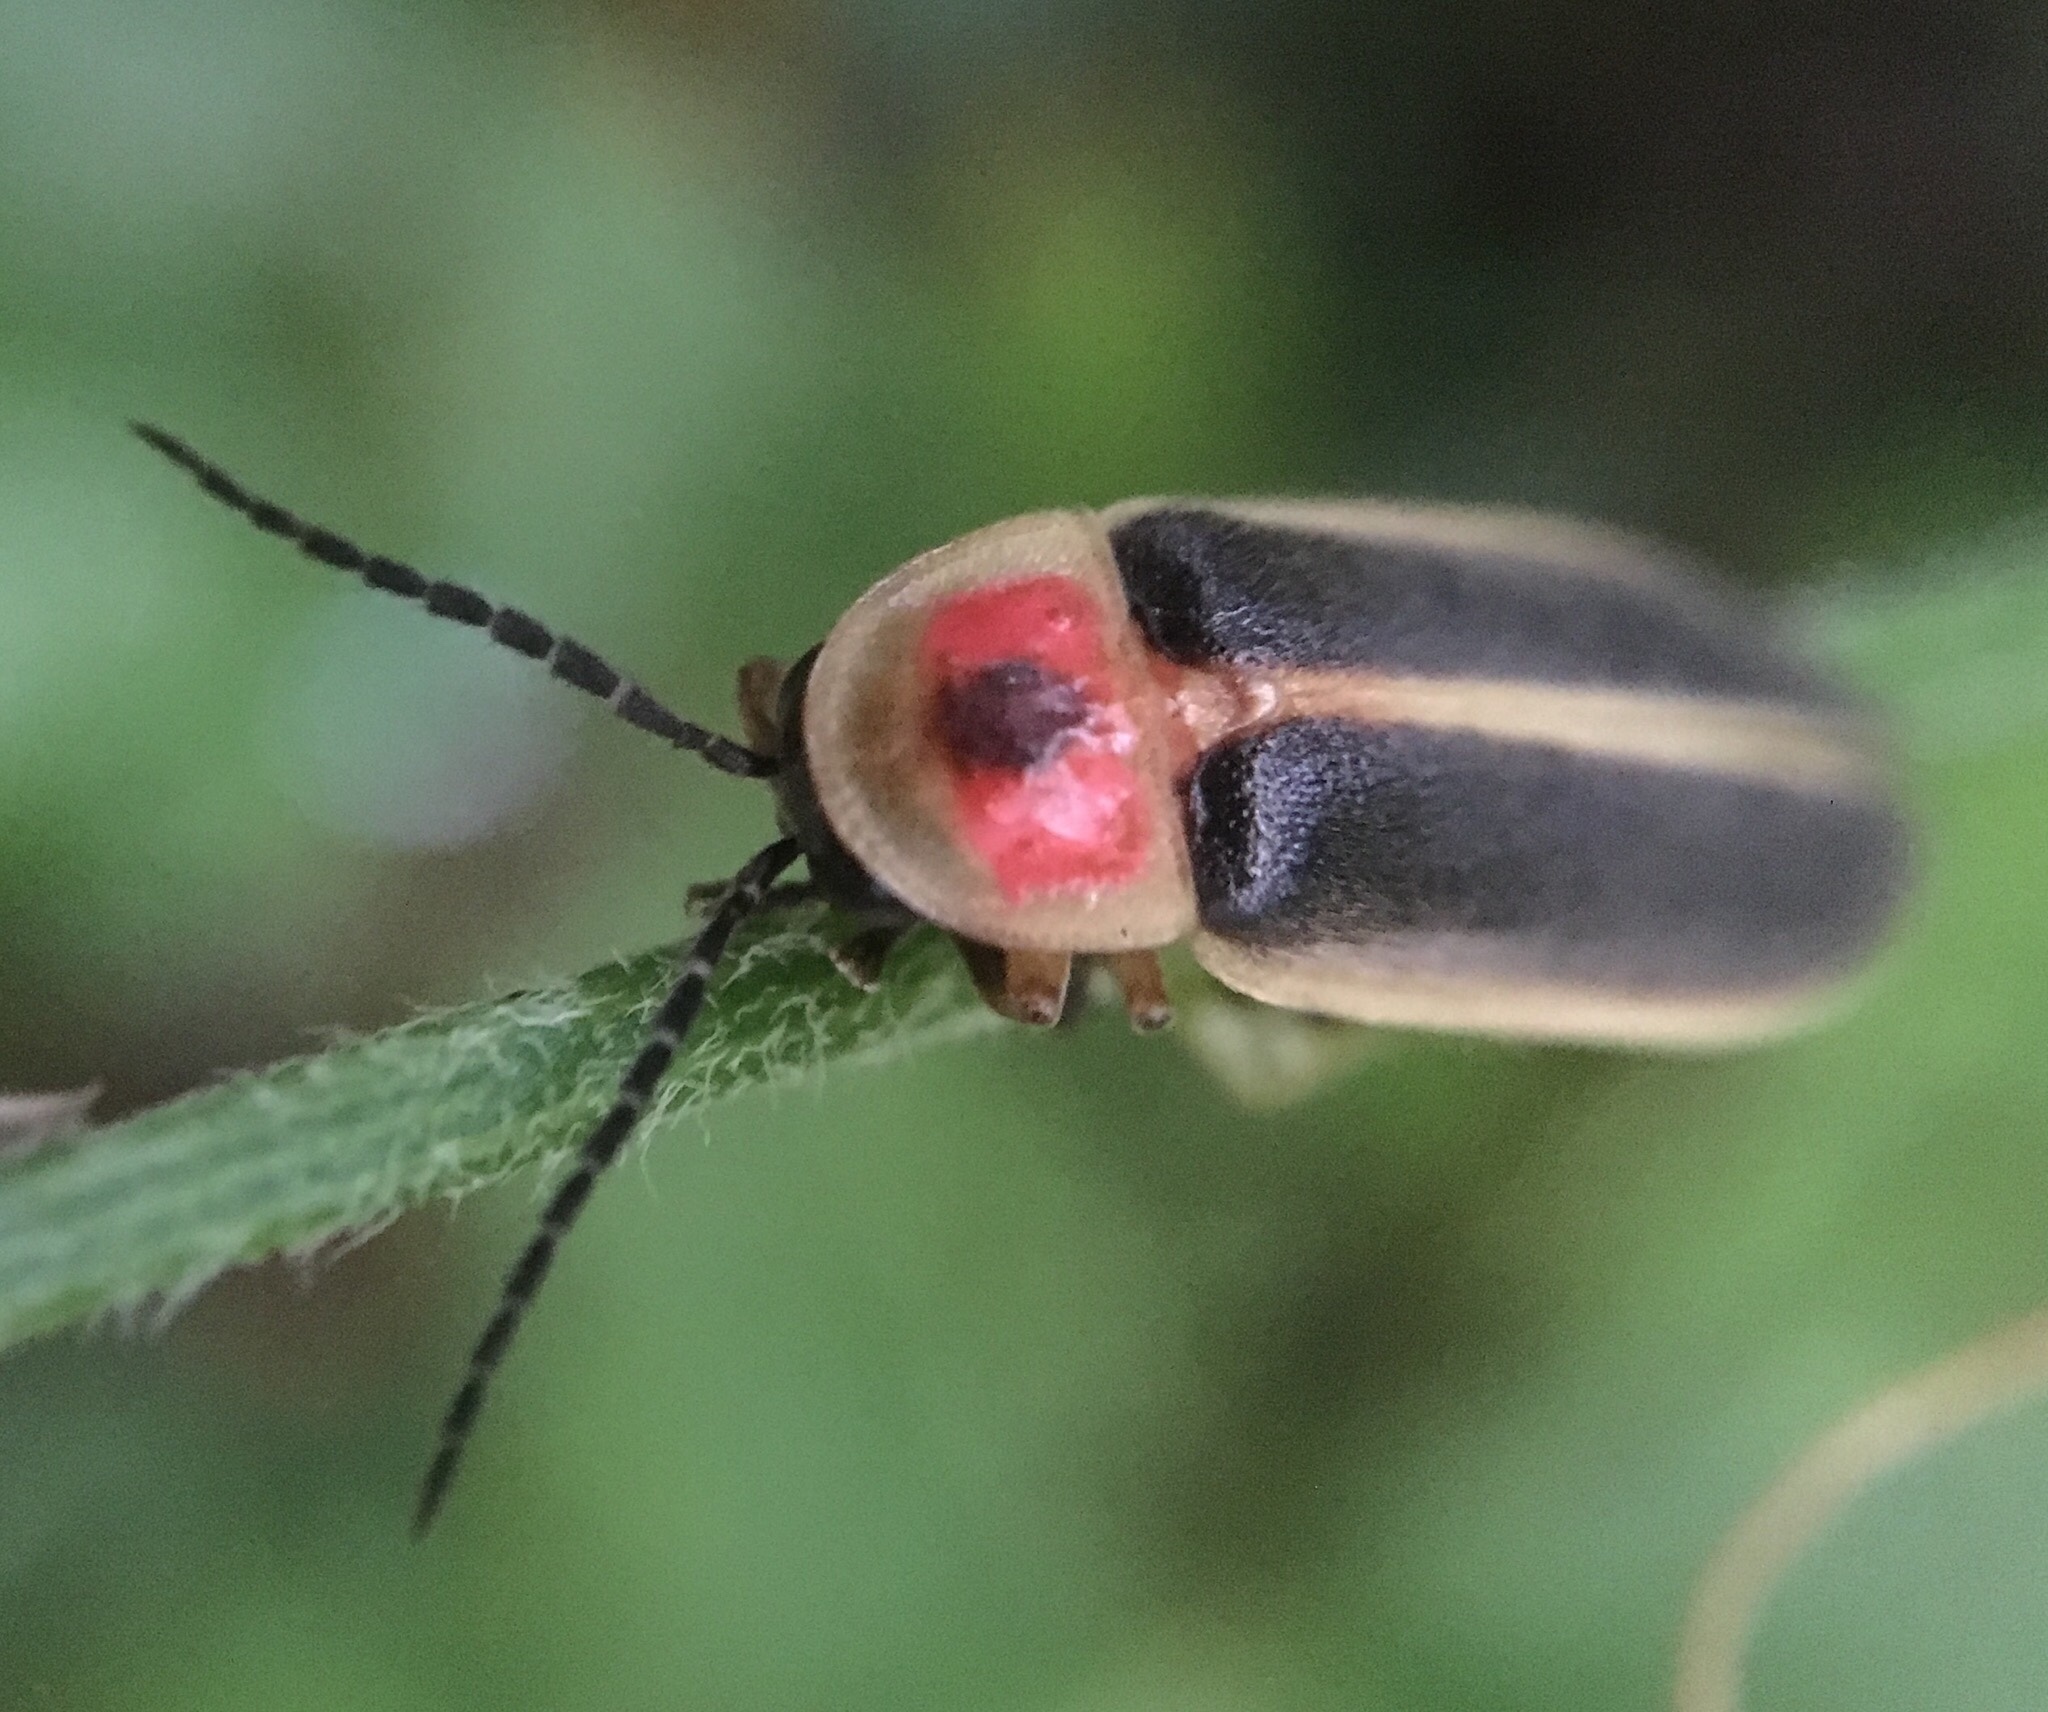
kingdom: Animalia
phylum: Arthropoda
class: Insecta
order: Coleoptera
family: Lampyridae
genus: Photinus
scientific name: Photinus pyralis
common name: Big dipper firefly
